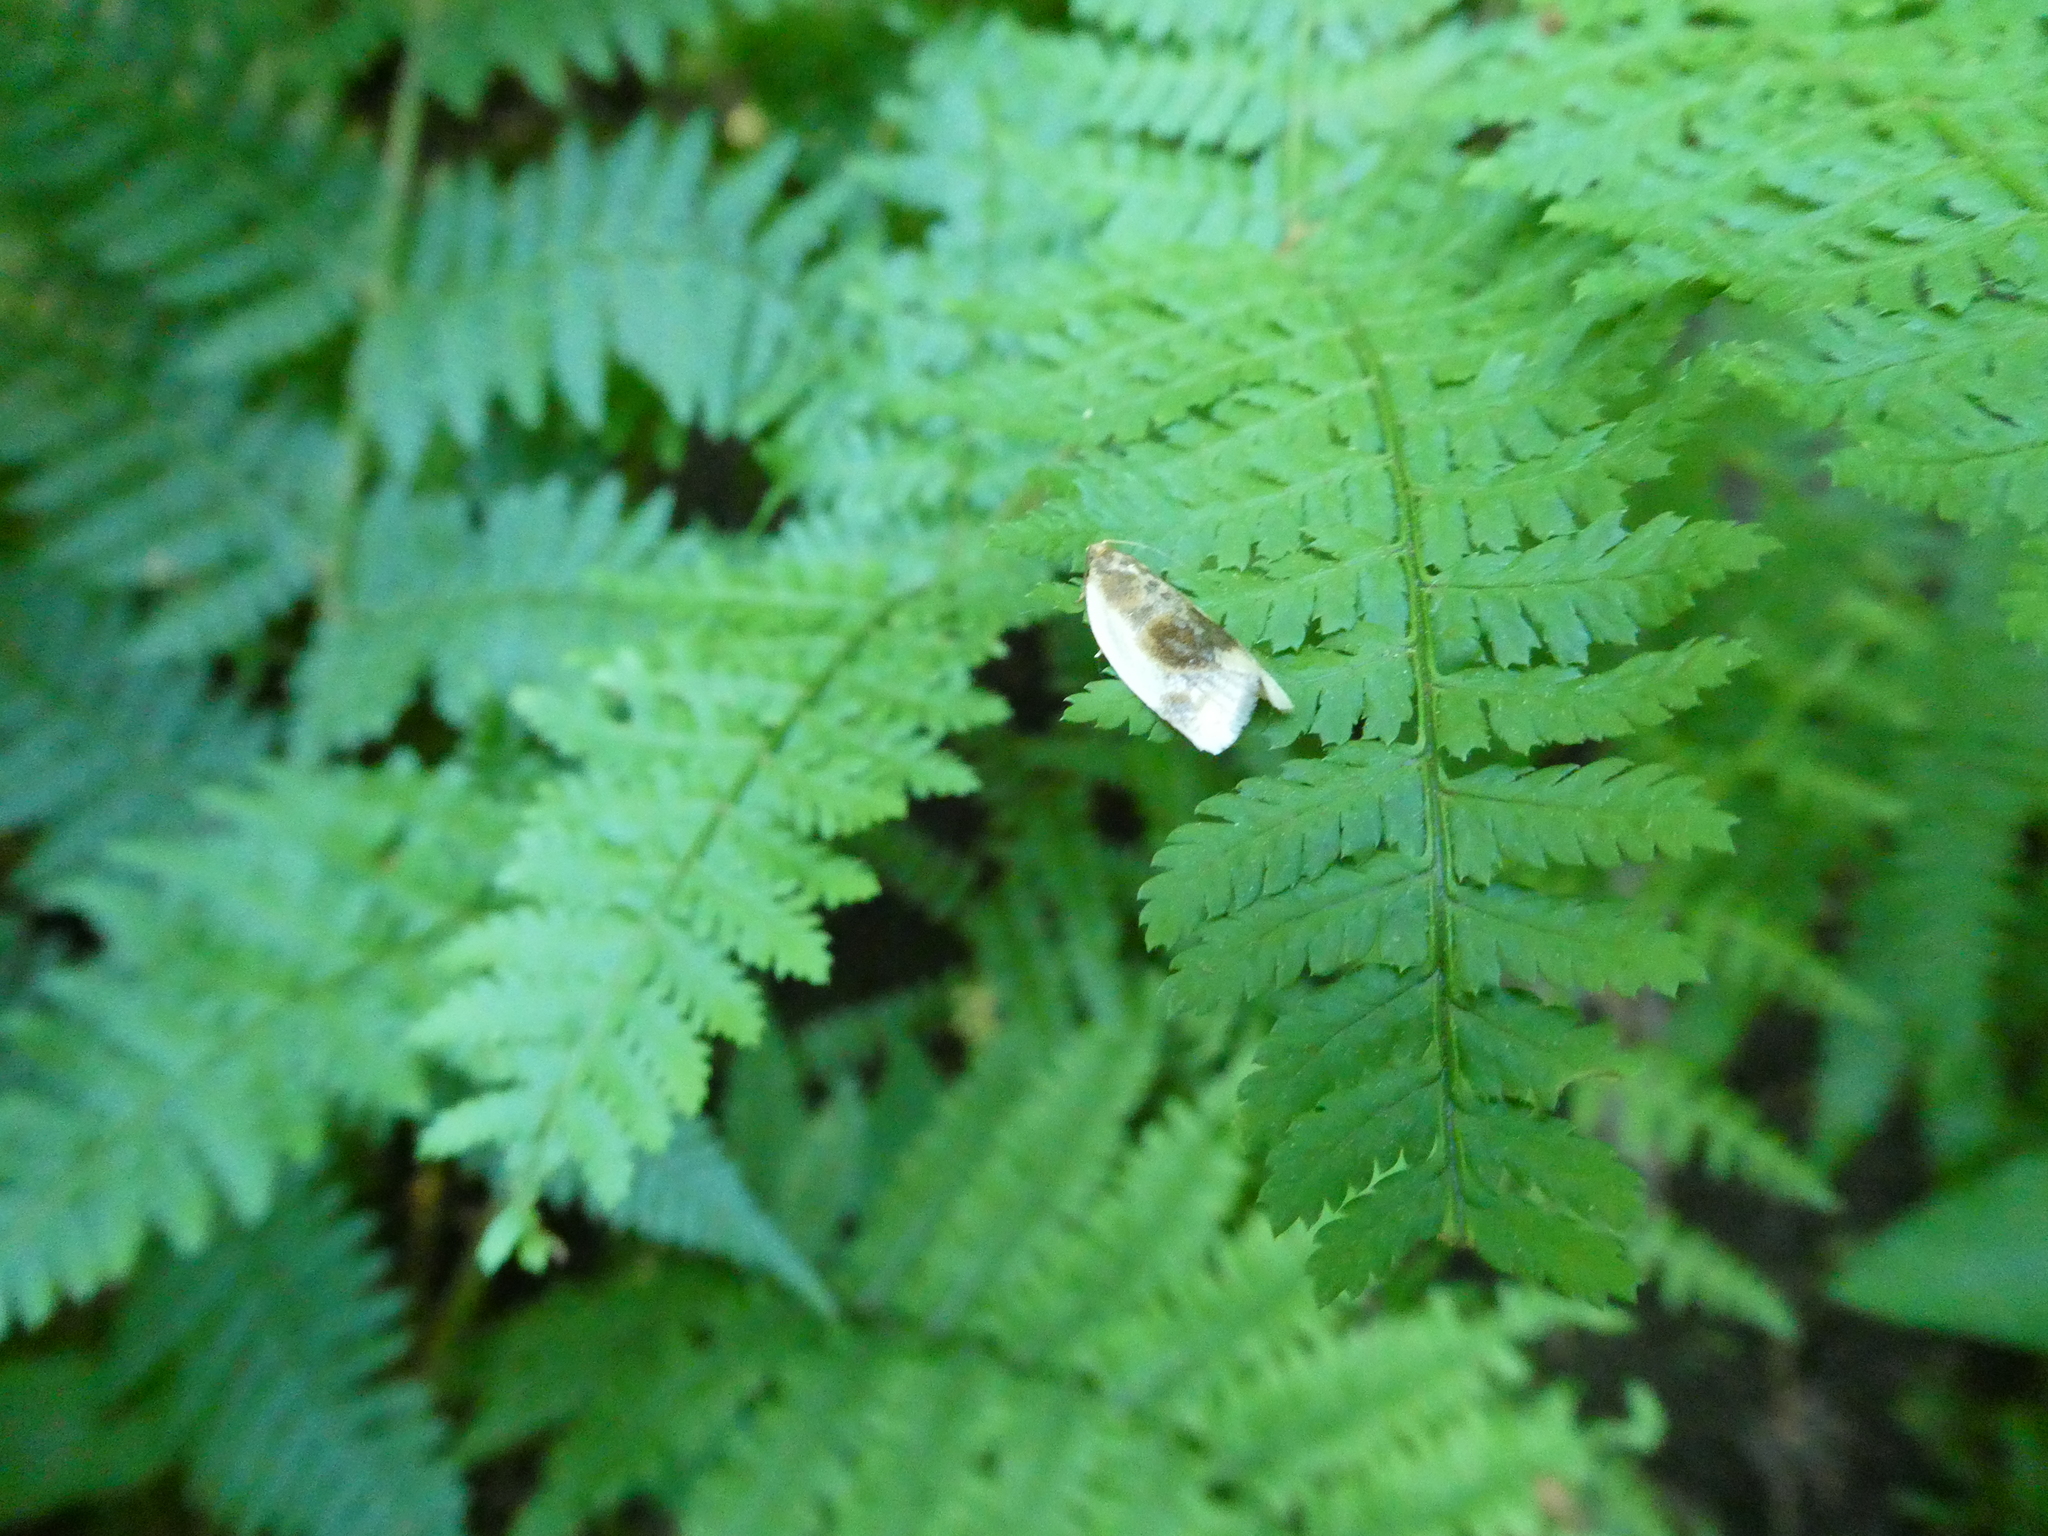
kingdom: Animalia
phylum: Arthropoda
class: Insecta
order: Lepidoptera
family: Tortricidae
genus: Clepsis
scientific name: Clepsis melaleucanus
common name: American apple tortrix
